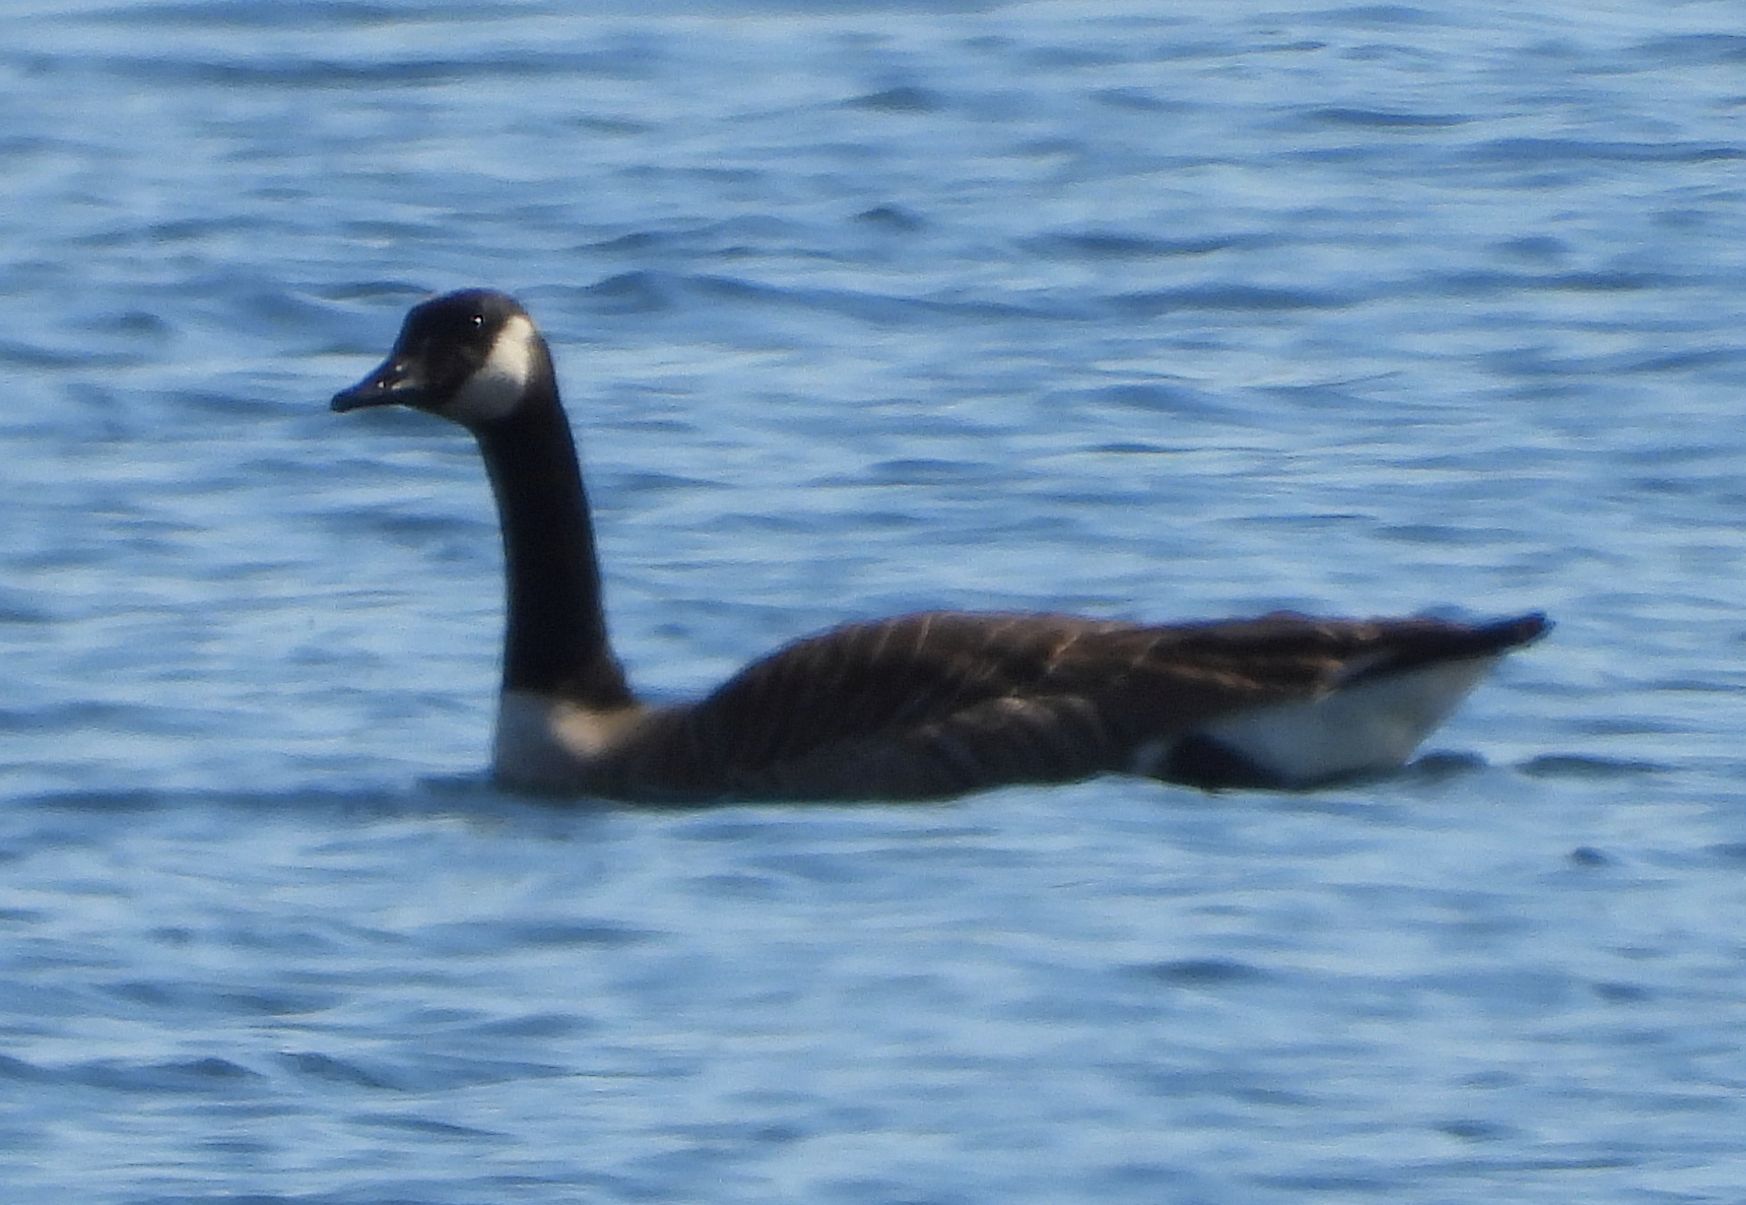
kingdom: Animalia
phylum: Chordata
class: Aves
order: Anseriformes
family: Anatidae
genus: Branta
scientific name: Branta canadensis
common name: Canada goose
